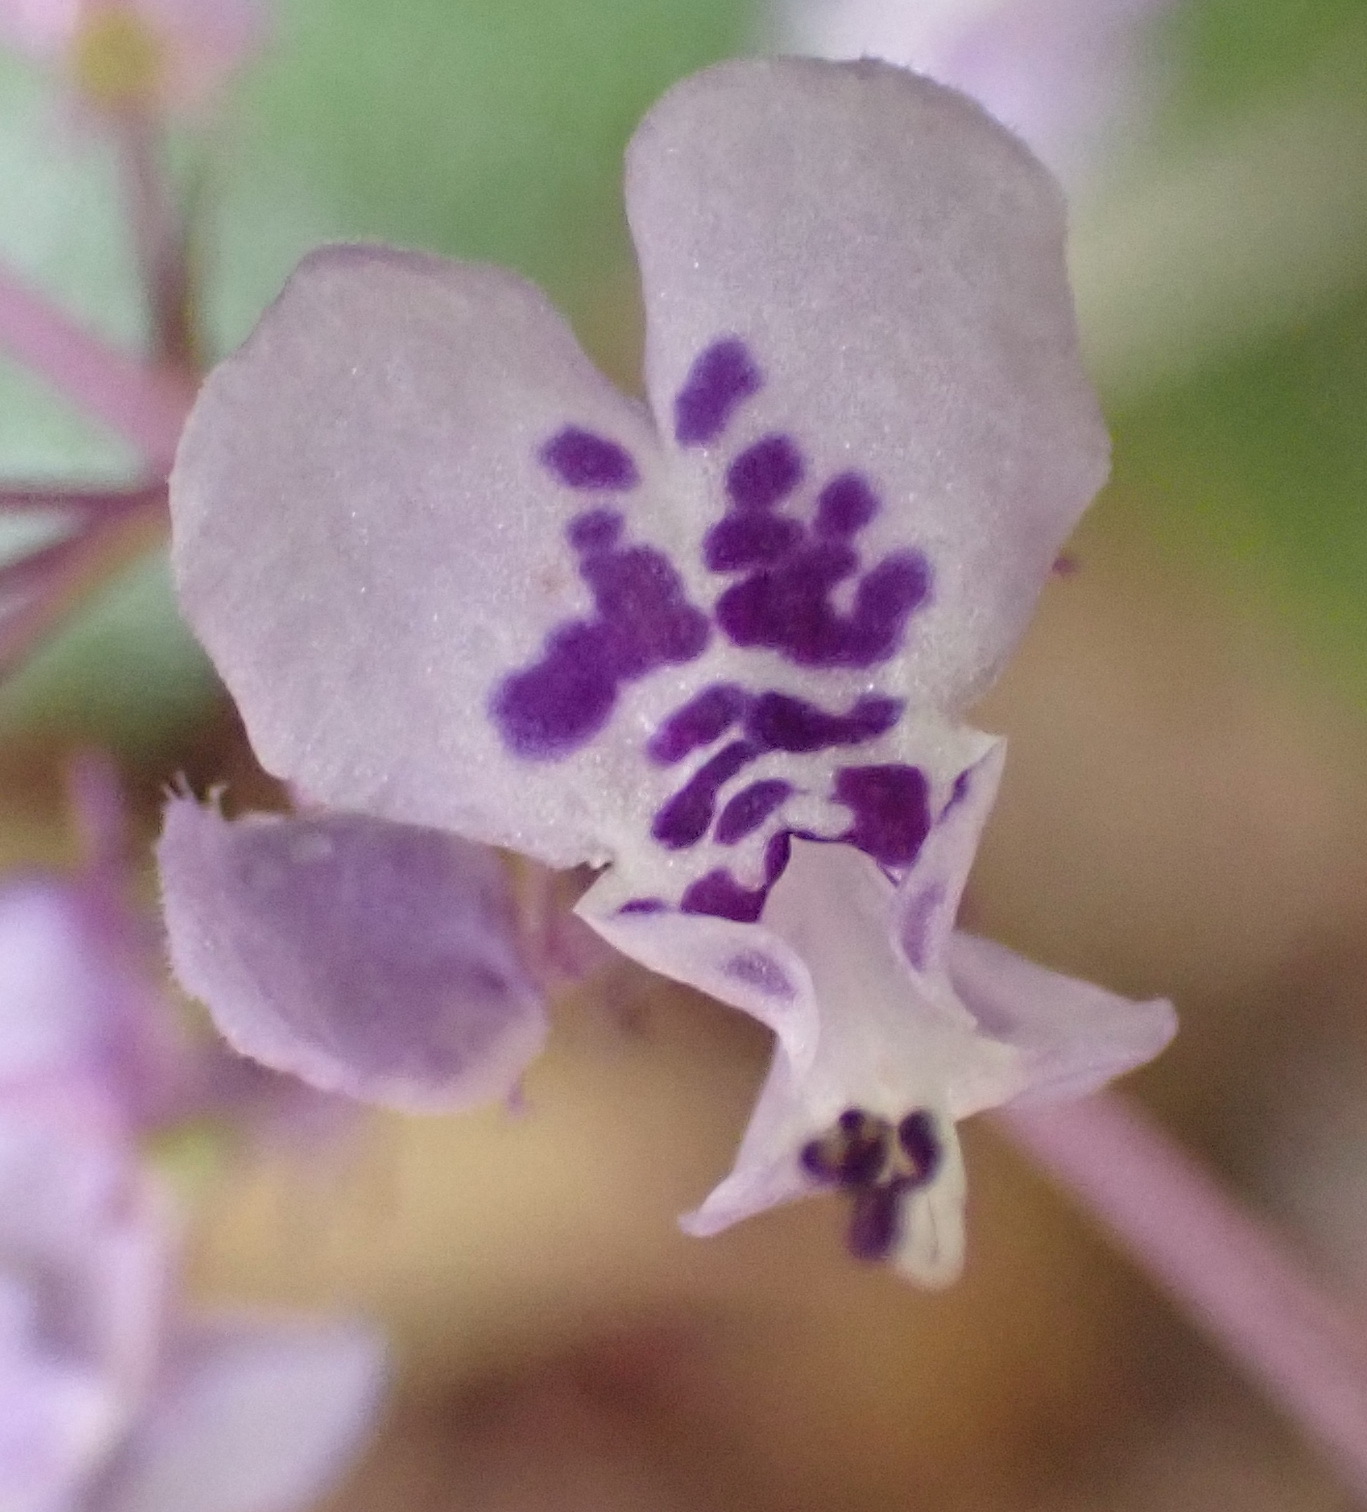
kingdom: Plantae
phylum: Tracheophyta
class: Magnoliopsida
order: Lamiales
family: Lamiaceae
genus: Plectranthus
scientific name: Plectranthus fruticosus
